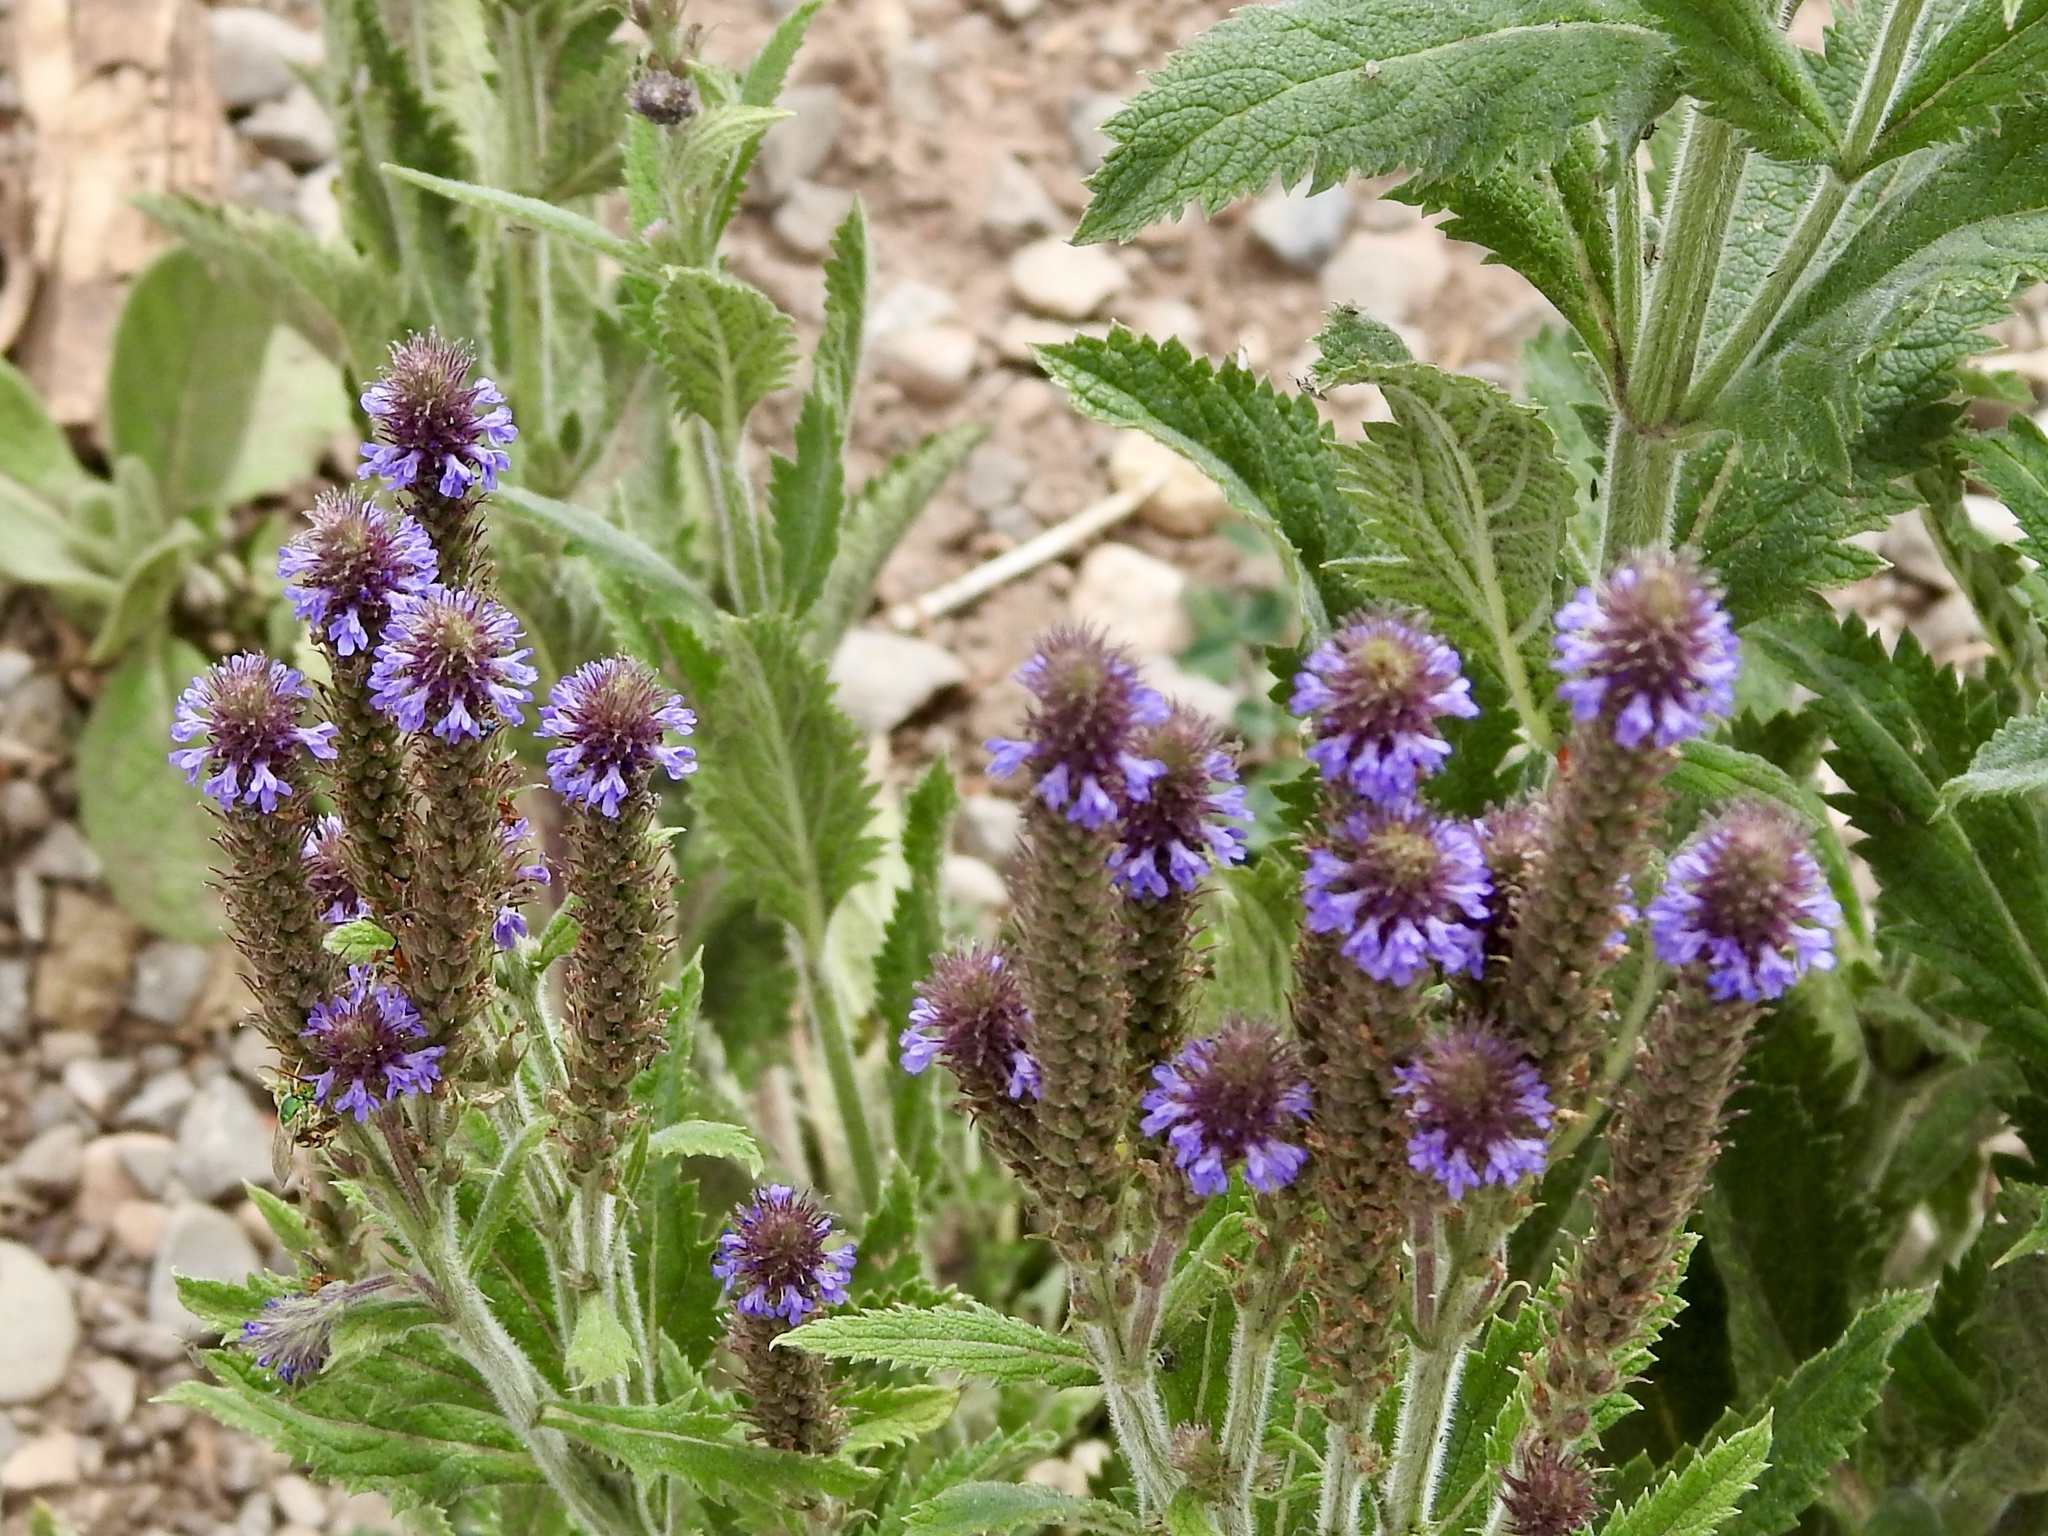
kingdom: Plantae
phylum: Tracheophyta
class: Magnoliopsida
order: Lamiales
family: Verbenaceae
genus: Verbena
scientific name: Verbena macdougalii
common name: New mexico vervain
